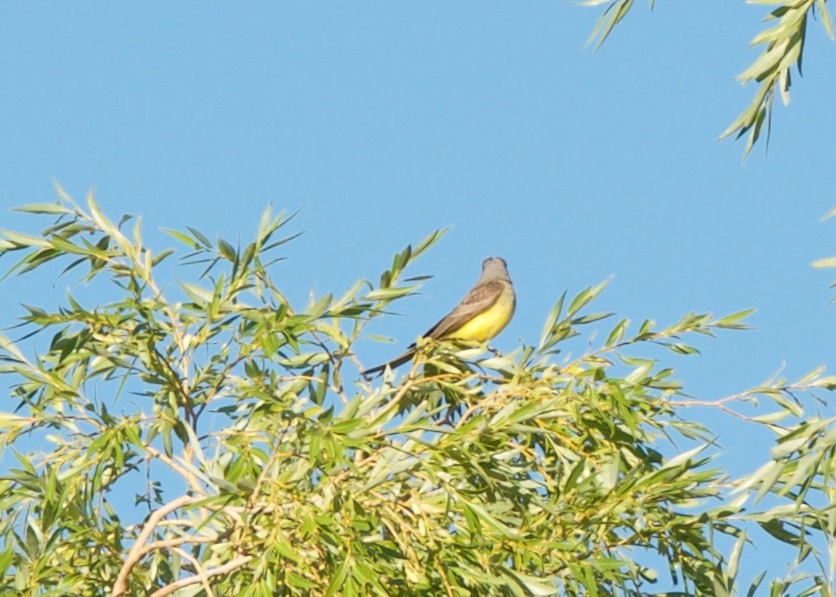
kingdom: Animalia
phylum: Chordata
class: Aves
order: Passeriformes
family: Tyrannidae
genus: Tyrannus
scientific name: Tyrannus melancholicus
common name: Tropical kingbird
